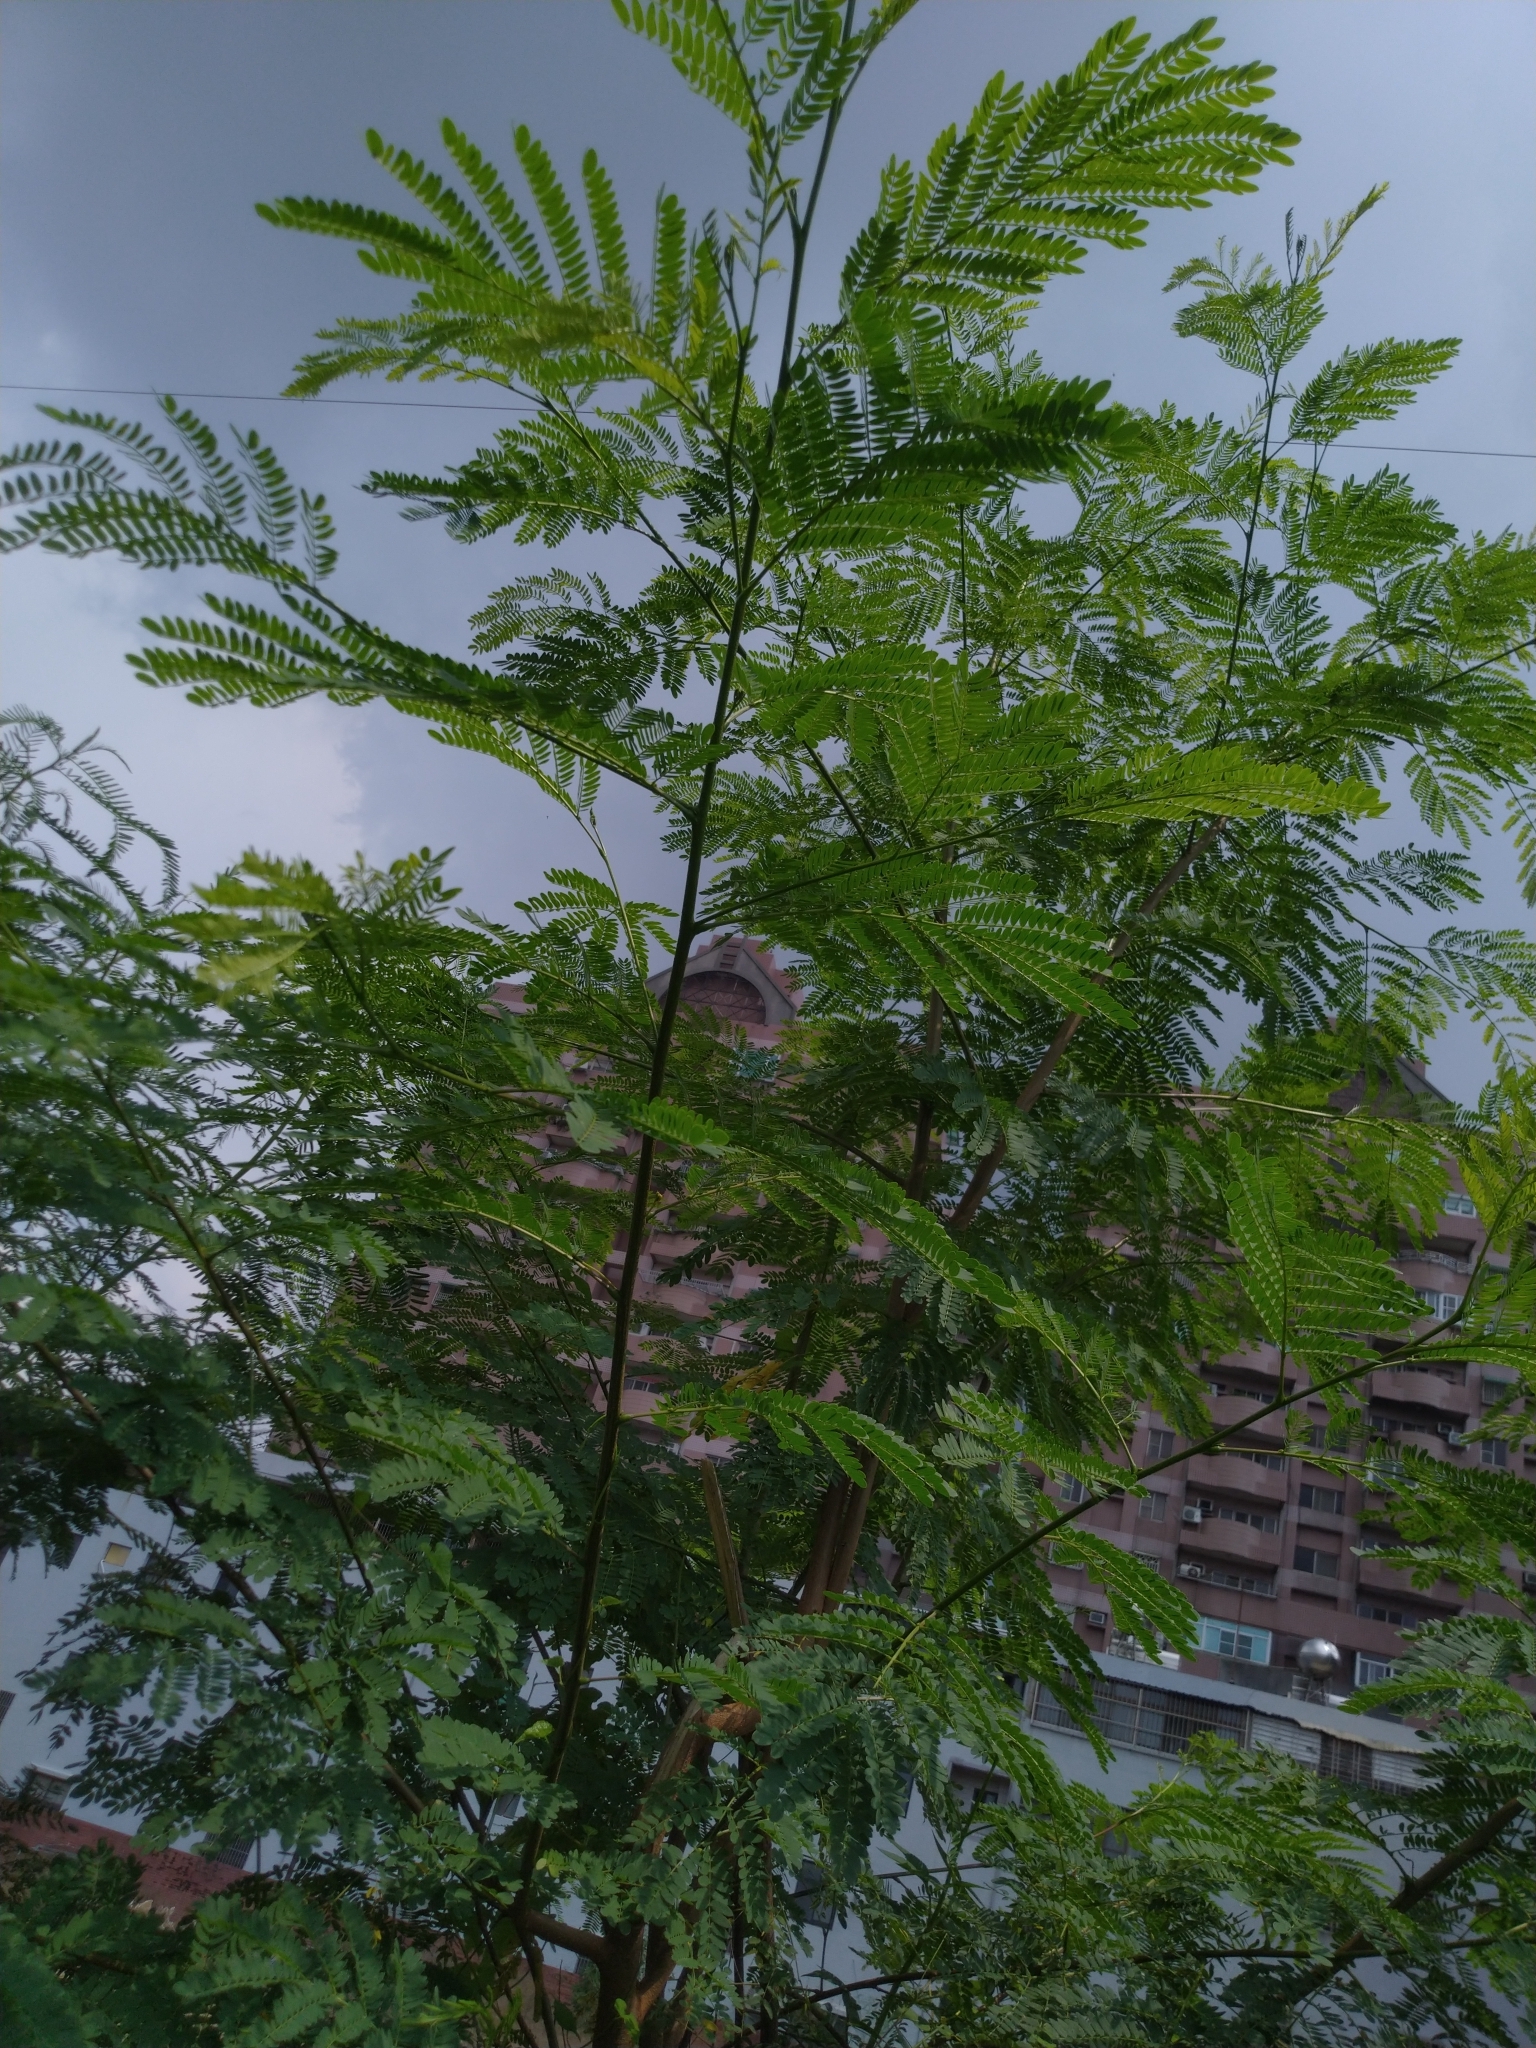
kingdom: Plantae
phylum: Tracheophyta
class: Magnoliopsida
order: Fabales
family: Fabaceae
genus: Leucaena
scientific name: Leucaena leucocephala
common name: White leadtree
